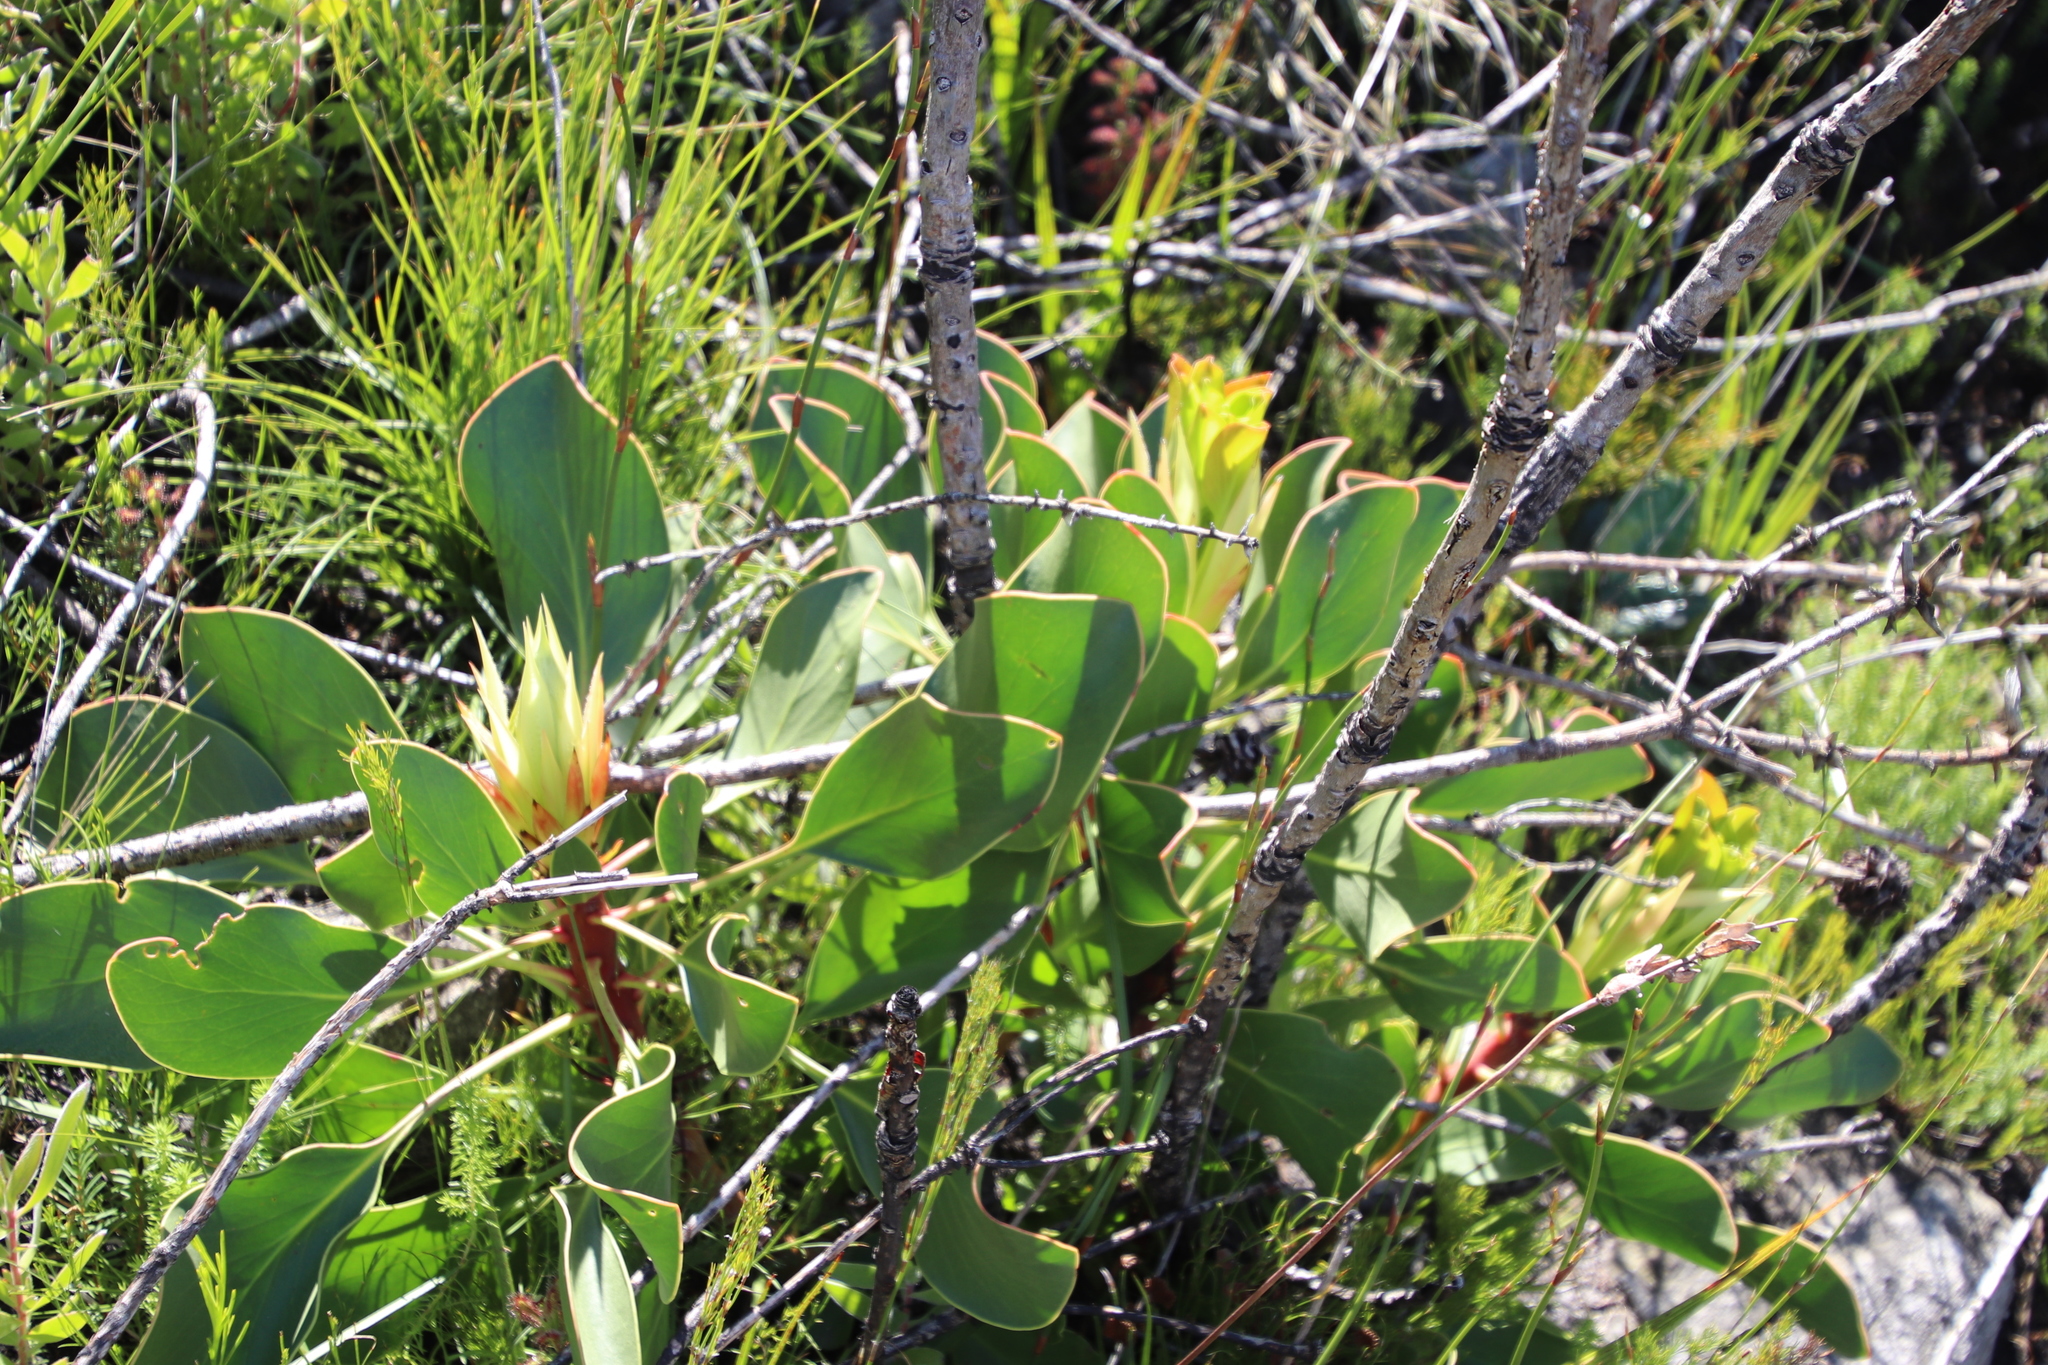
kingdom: Plantae
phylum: Tracheophyta
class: Magnoliopsida
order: Proteales
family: Proteaceae
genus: Protea
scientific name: Protea cynaroides
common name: King protea
